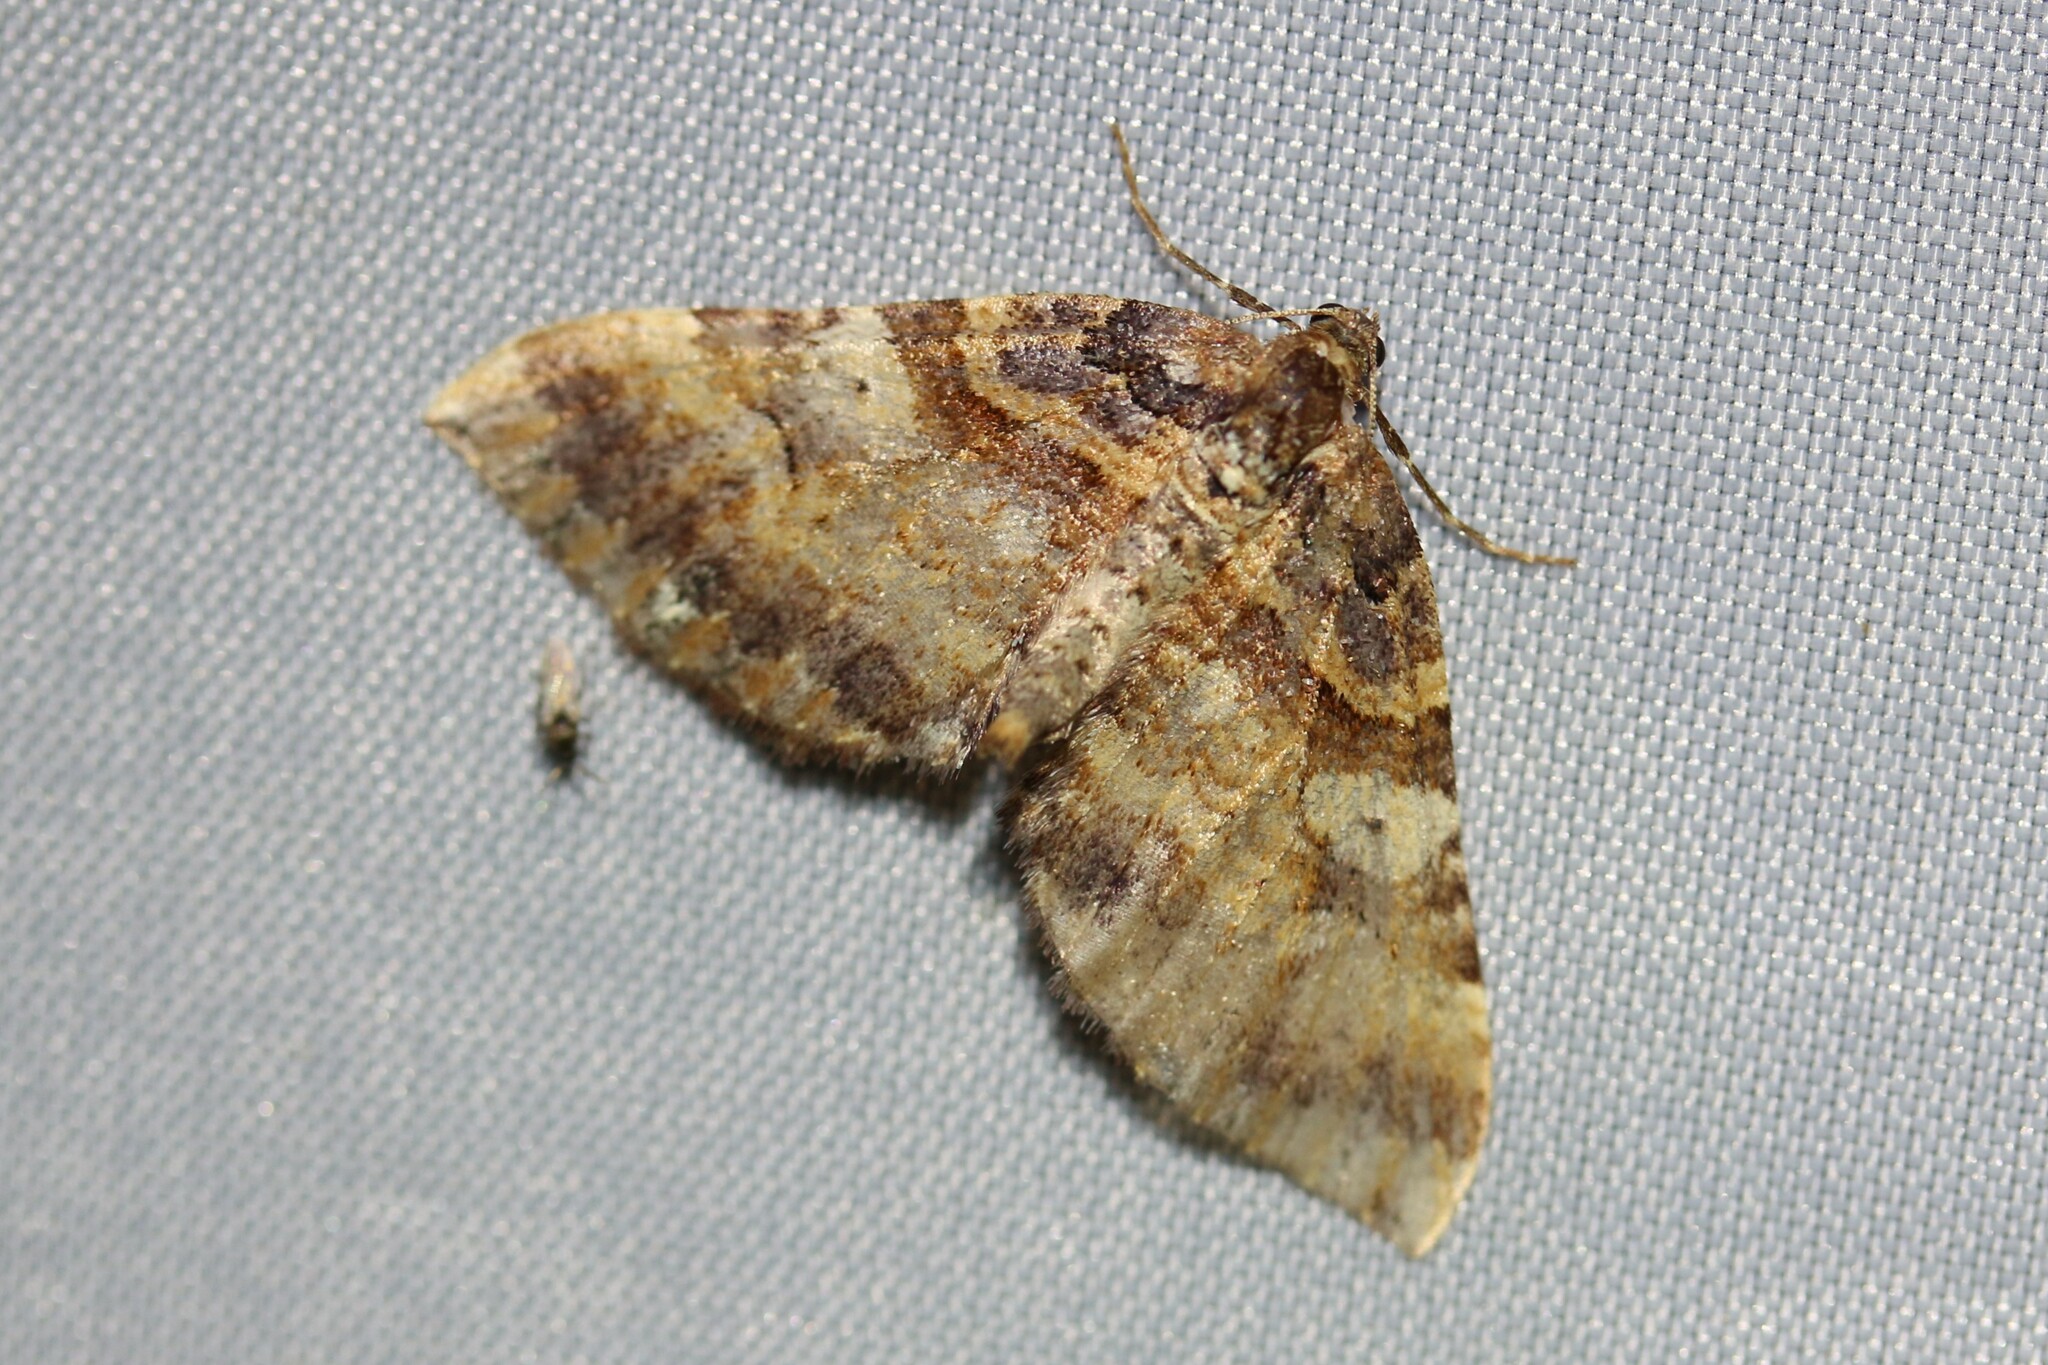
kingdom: Animalia
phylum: Arthropoda
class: Insecta
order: Lepidoptera
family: Geometridae
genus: Anticlea
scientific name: Anticlea badiata
